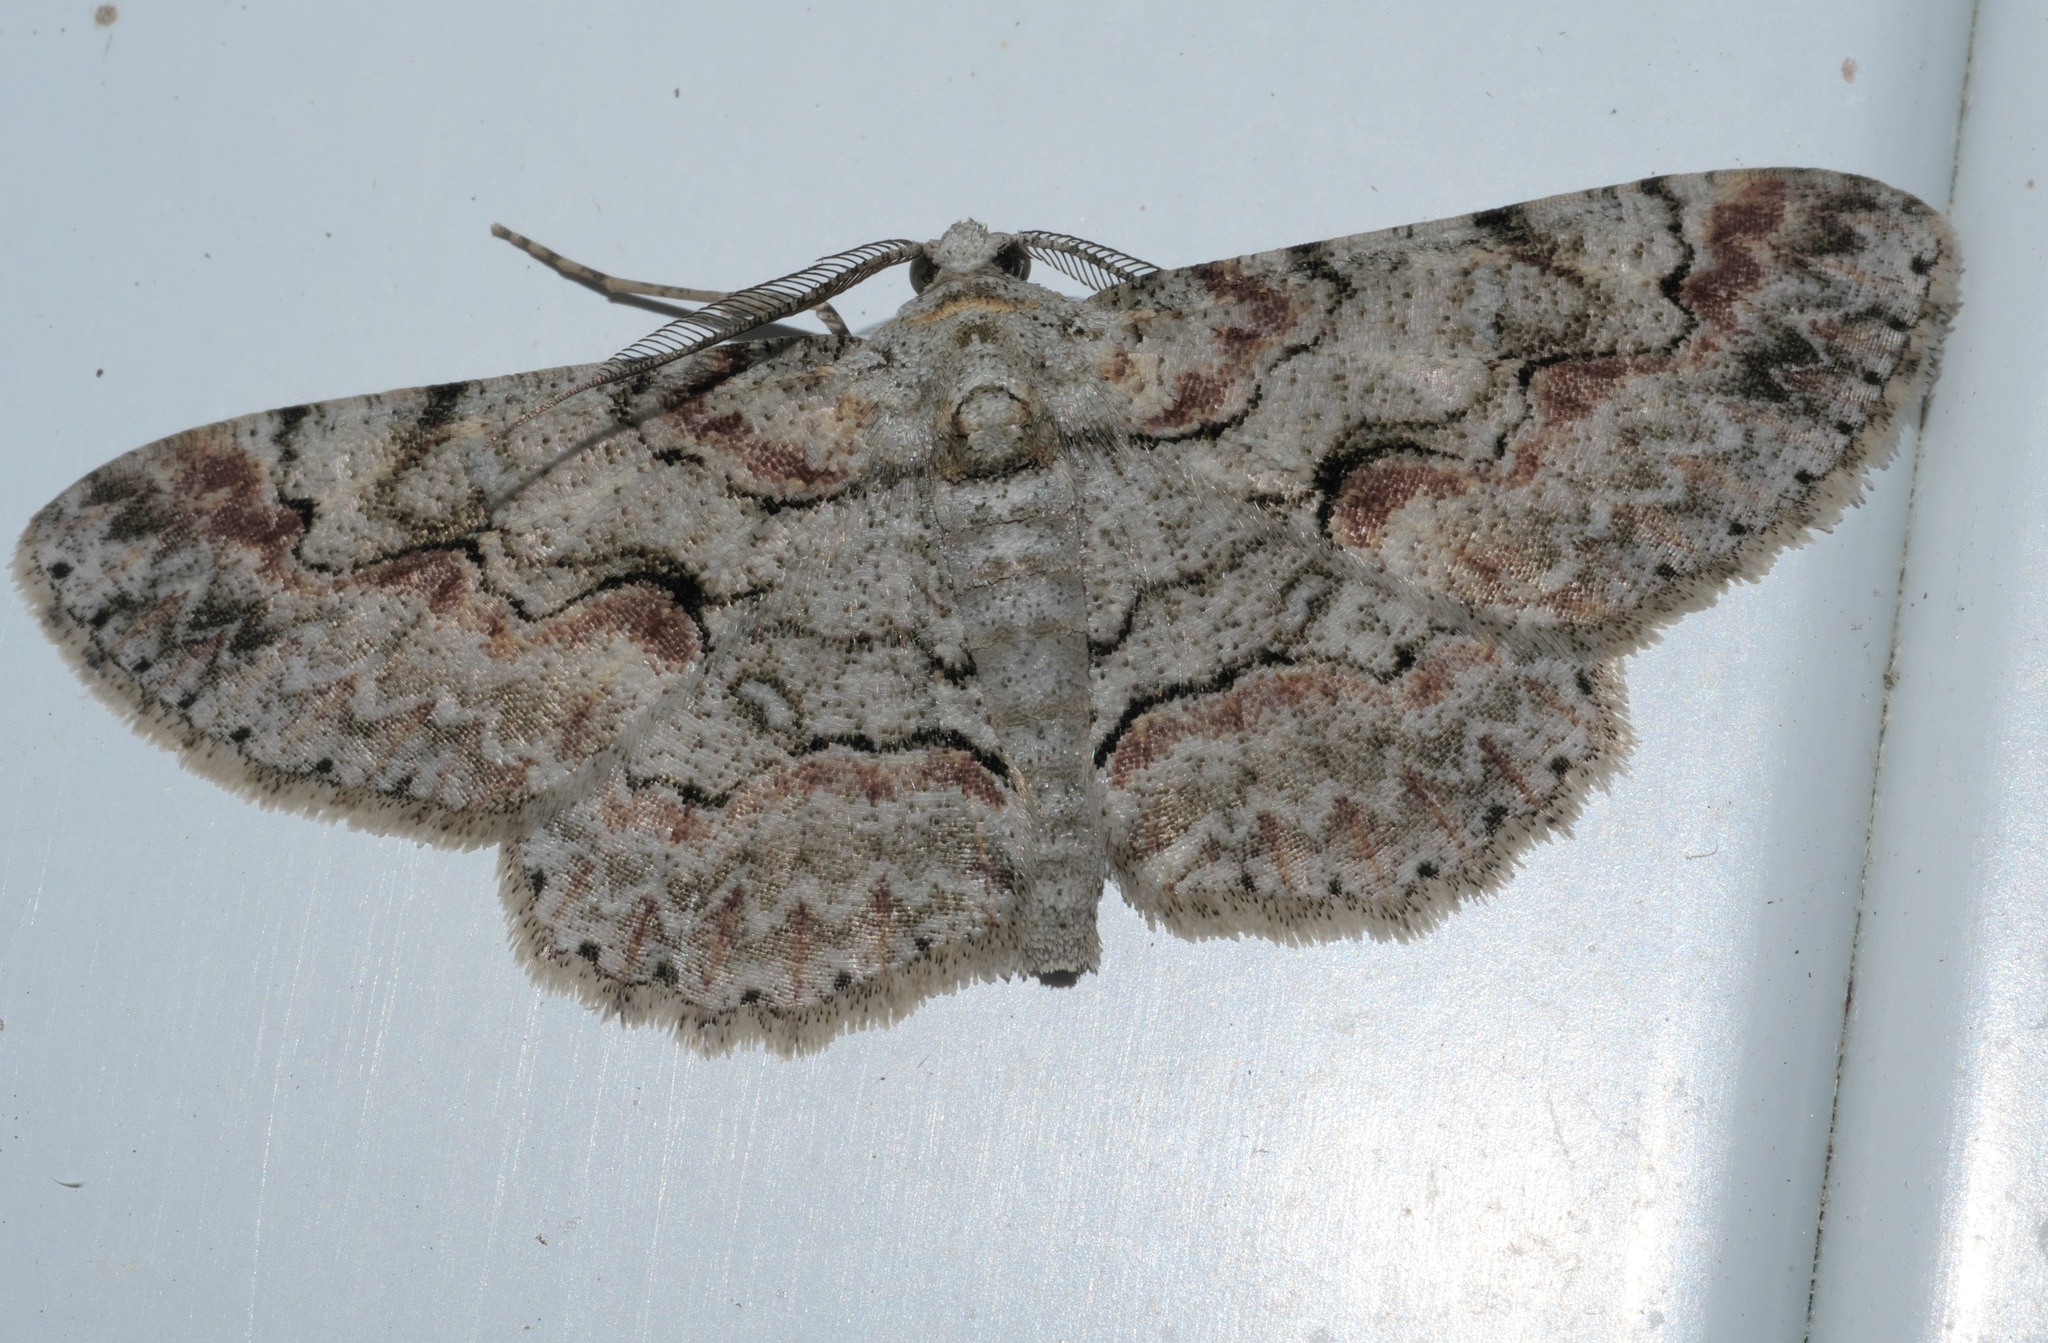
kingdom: Animalia
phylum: Arthropoda
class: Insecta
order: Lepidoptera
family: Geometridae
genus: Iridopsis
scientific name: Iridopsis defectaria
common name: Brown-shaded gray
